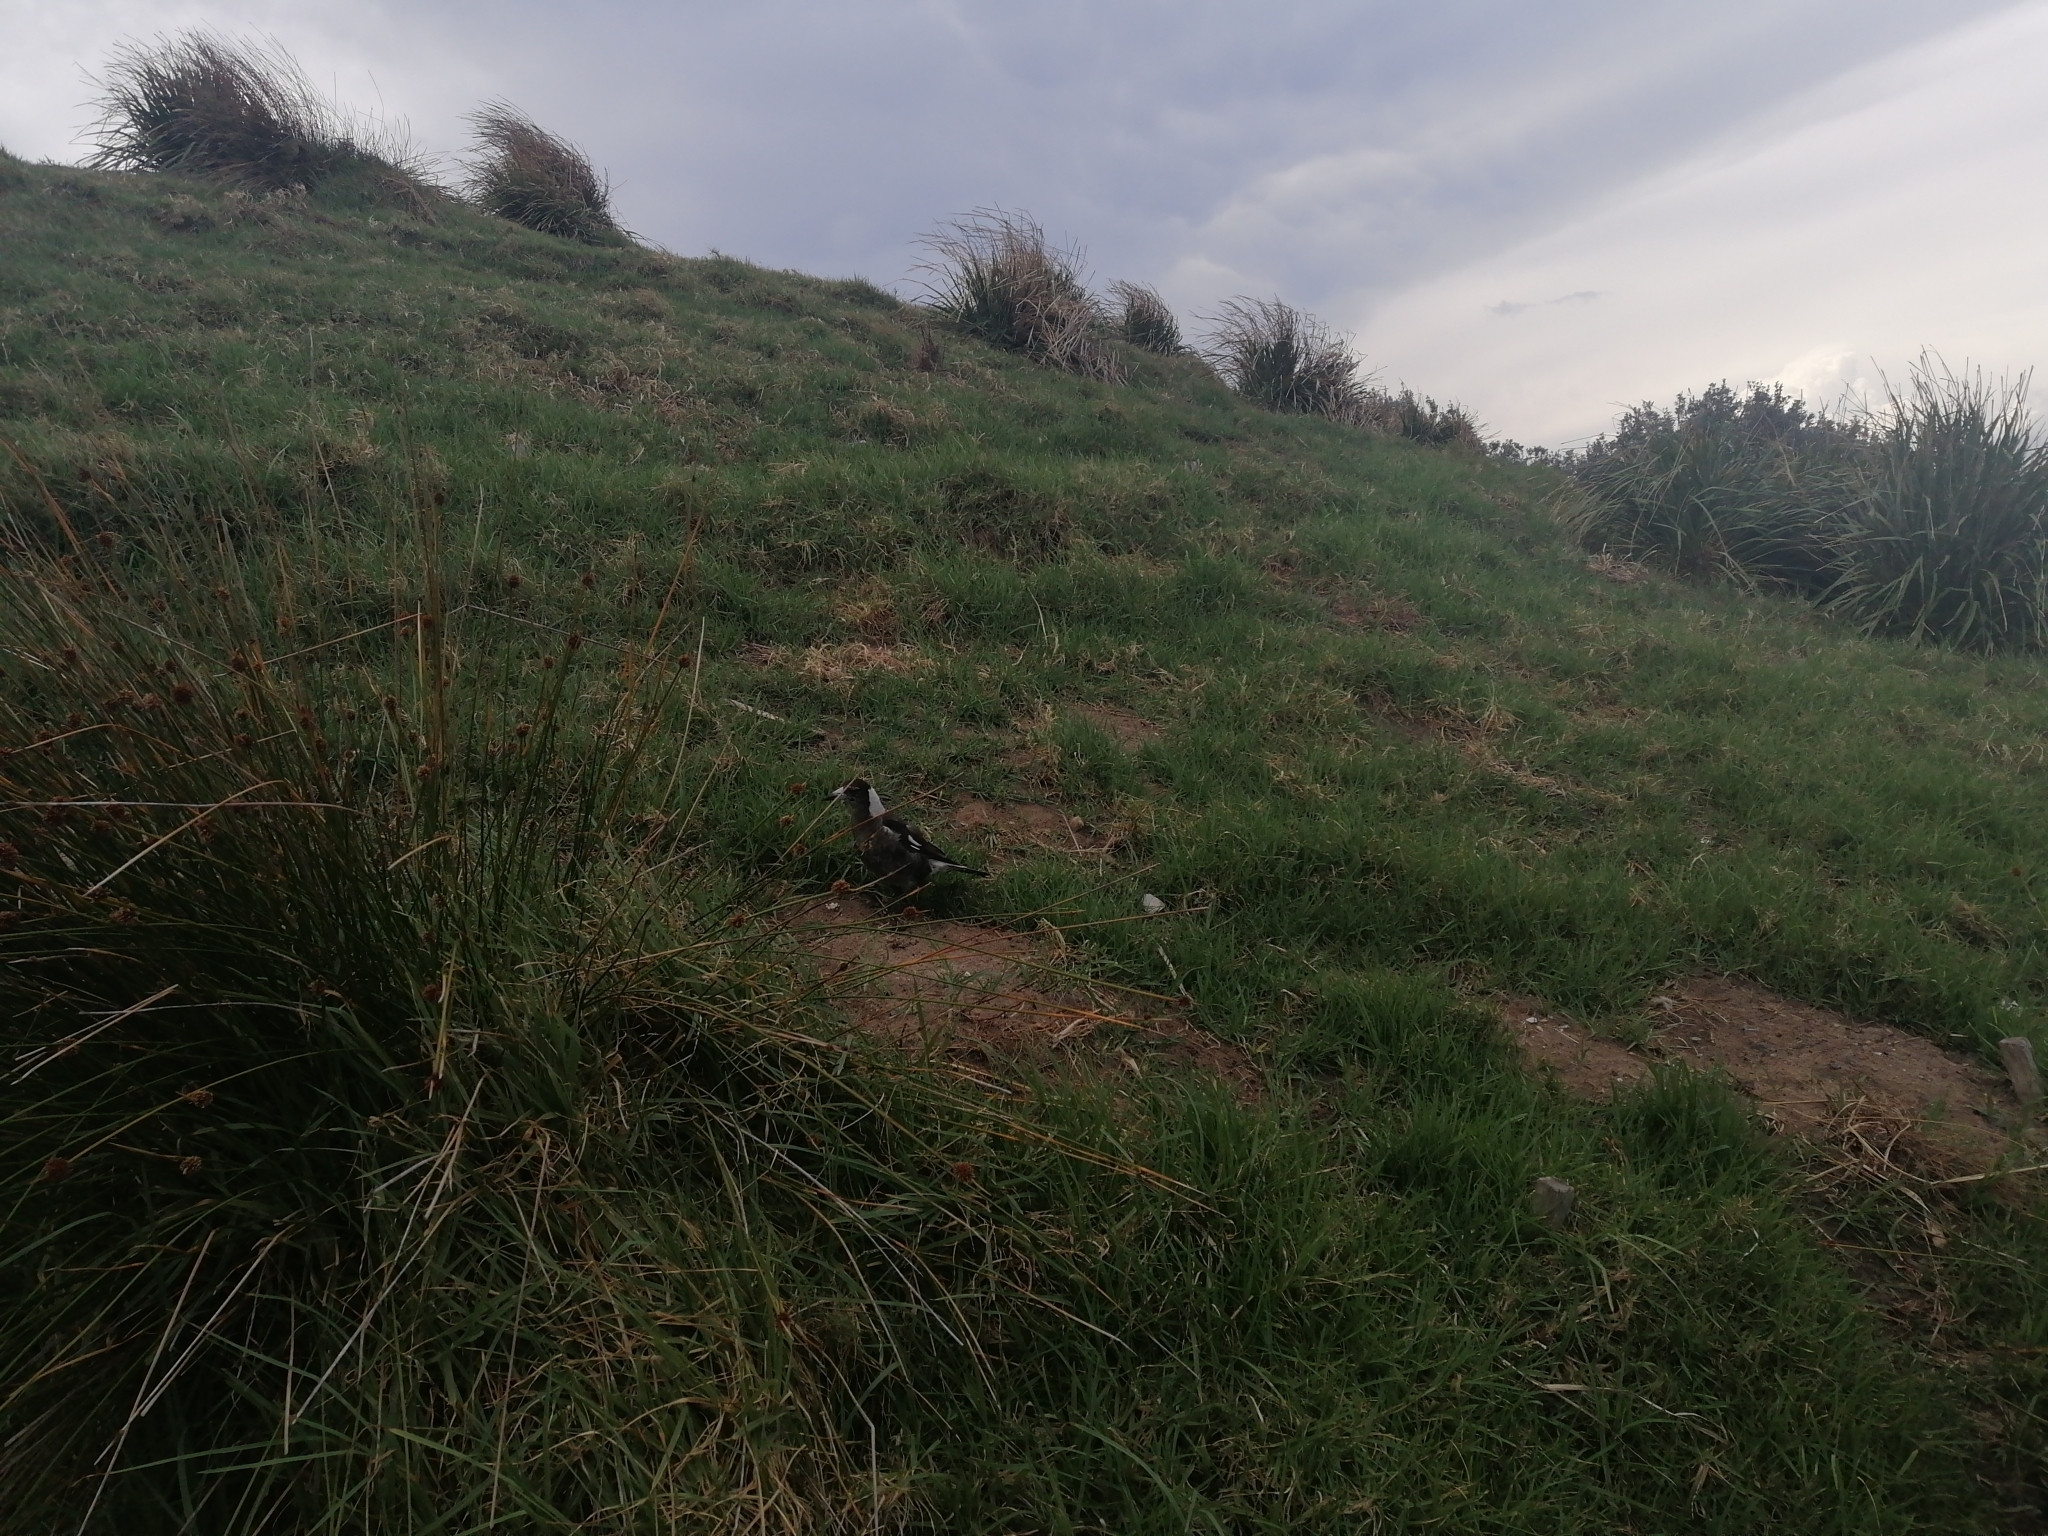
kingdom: Animalia
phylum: Chordata
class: Aves
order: Passeriformes
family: Cracticidae
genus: Gymnorhina
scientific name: Gymnorhina tibicen
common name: Australian magpie
